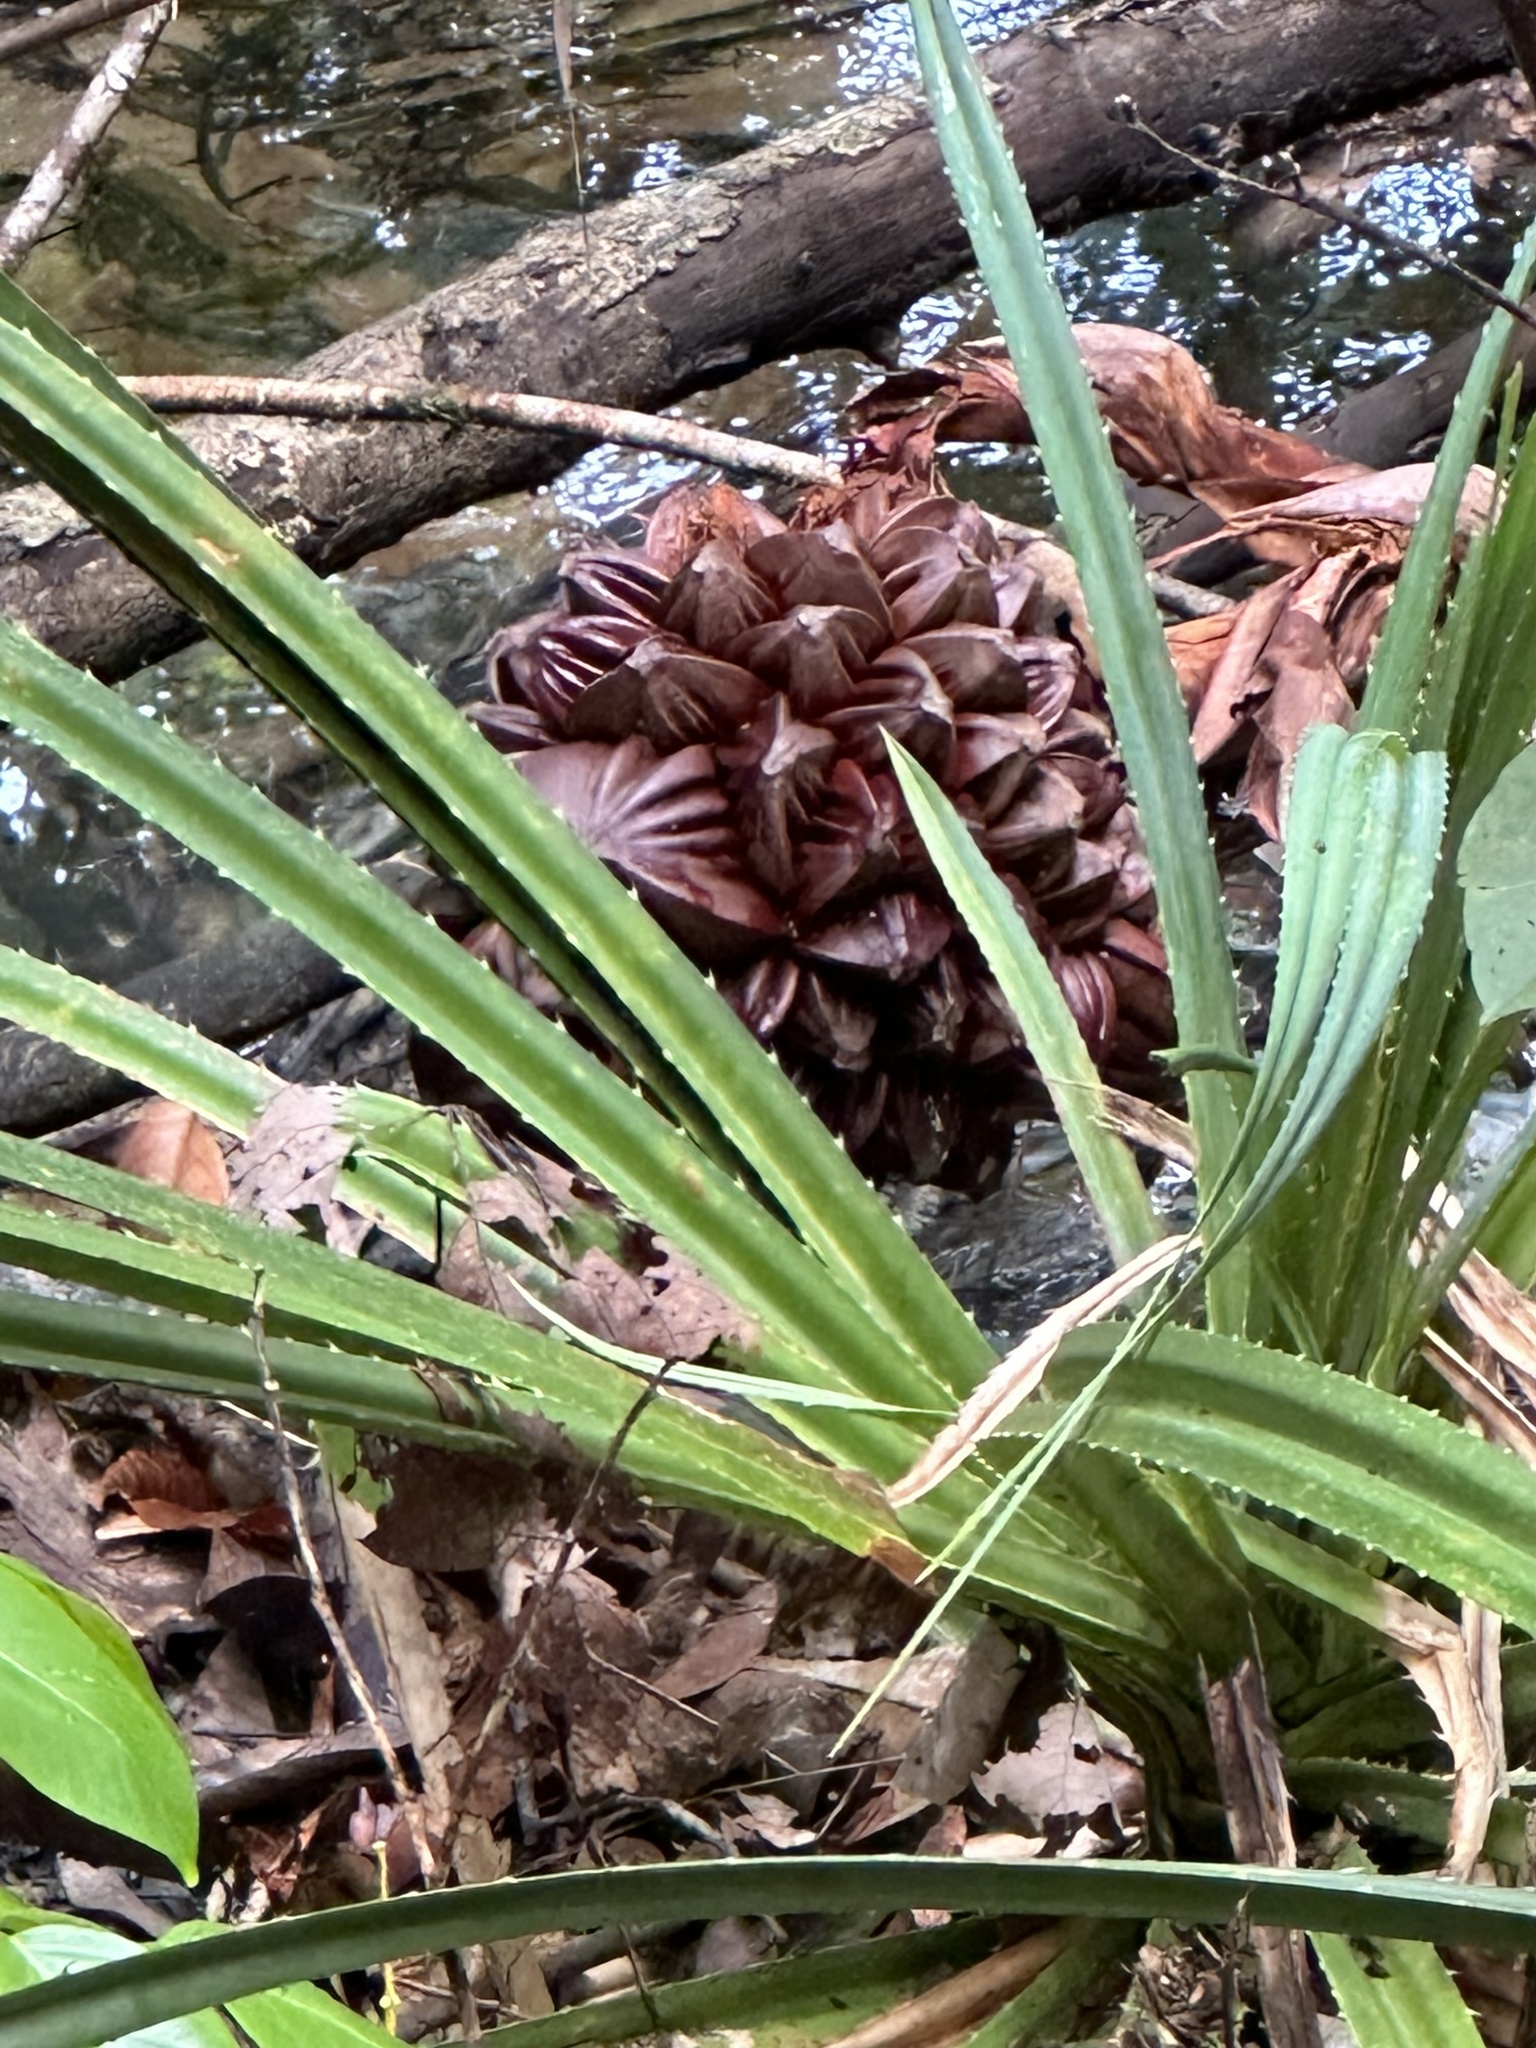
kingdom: Plantae
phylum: Tracheophyta
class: Liliopsida
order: Arecales
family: Arecaceae
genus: Nypa
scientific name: Nypa fruticans
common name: Mangrove palm
